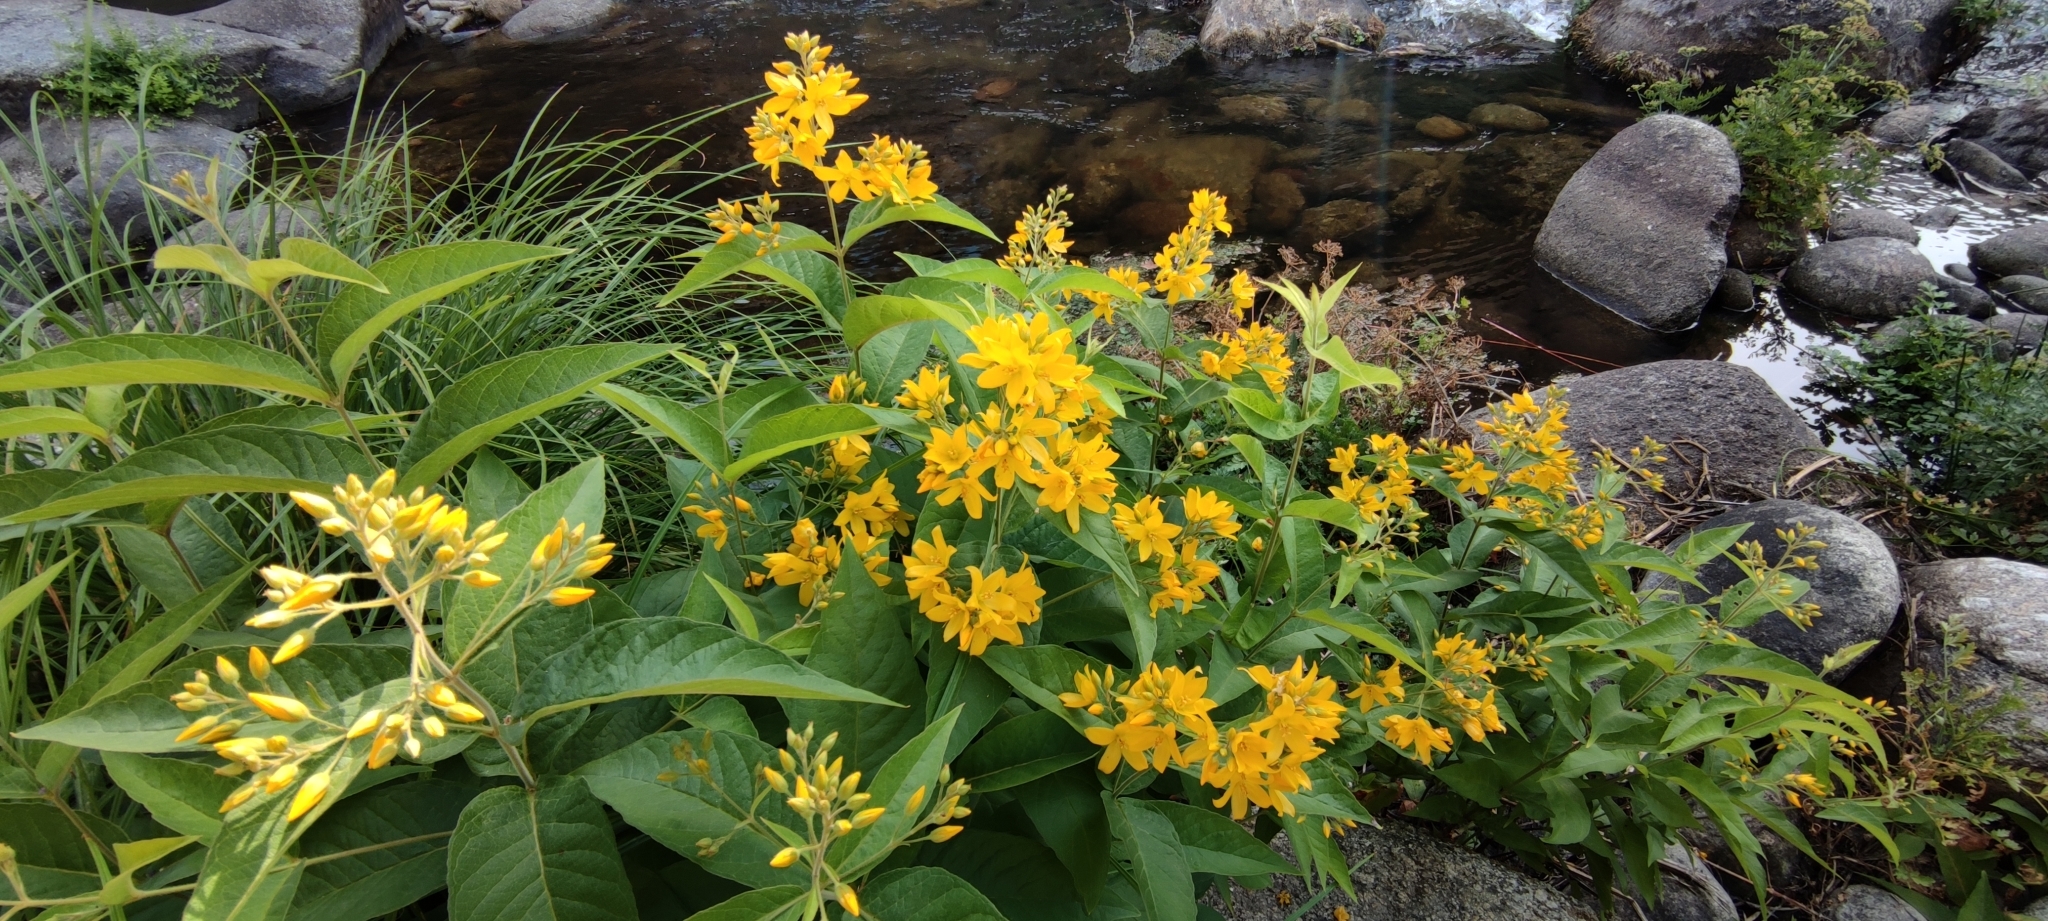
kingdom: Plantae
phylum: Tracheophyta
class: Magnoliopsida
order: Ericales
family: Primulaceae
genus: Lysimachia
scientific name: Lysimachia vulgaris
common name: Yellow loosestrife
